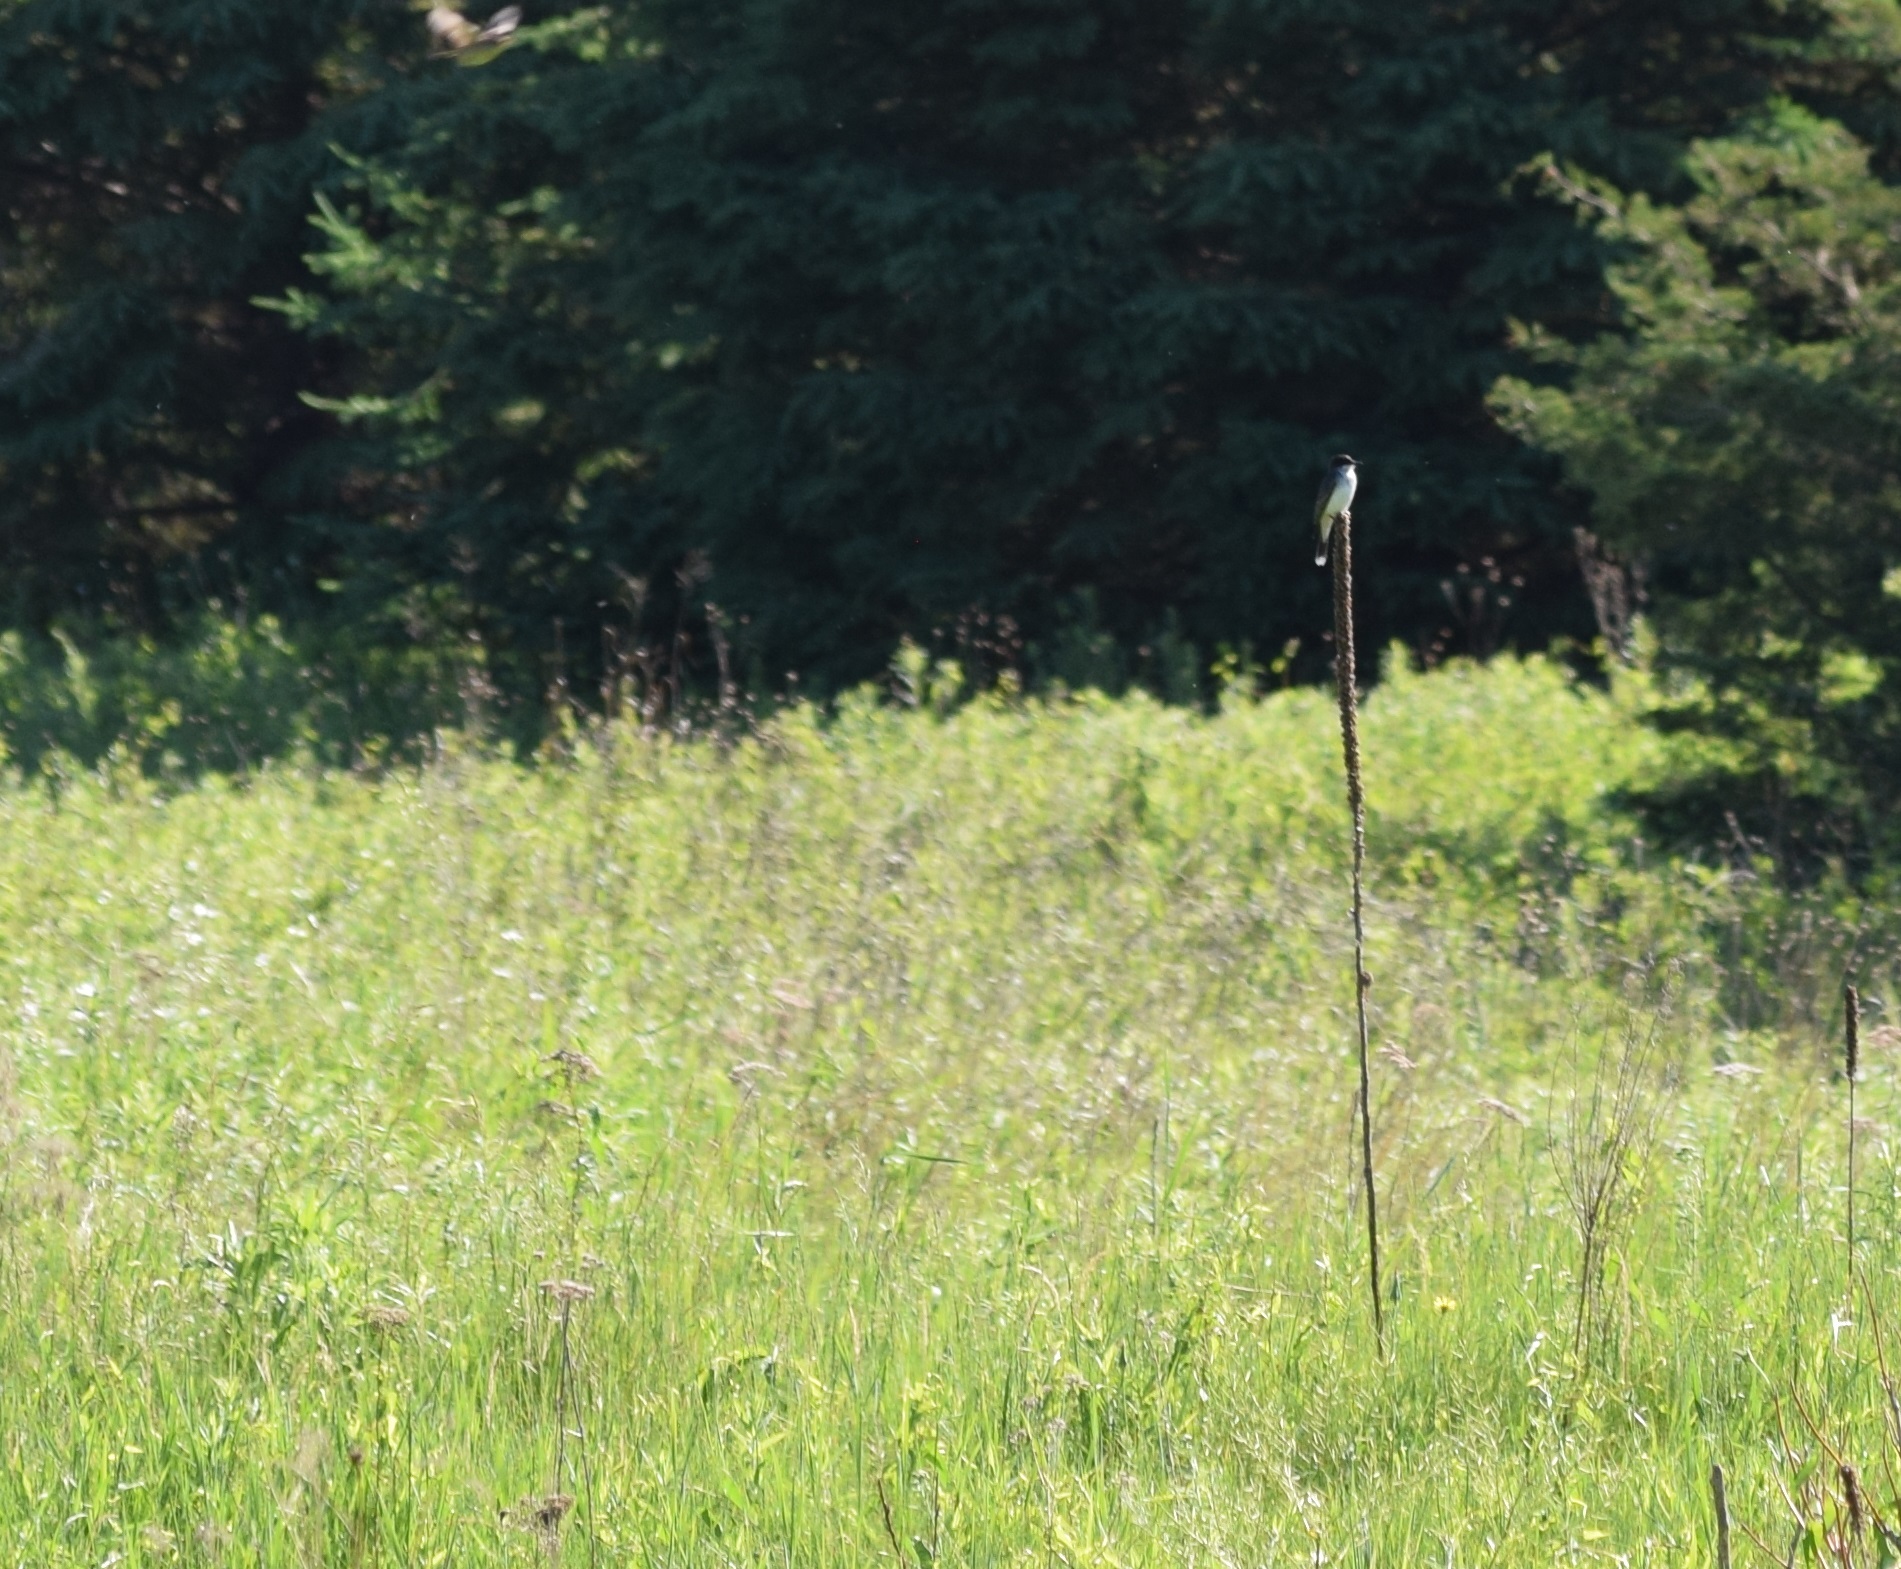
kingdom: Animalia
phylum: Chordata
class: Aves
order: Passeriformes
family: Tyrannidae
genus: Tyrannus
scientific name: Tyrannus tyrannus
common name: Eastern kingbird
